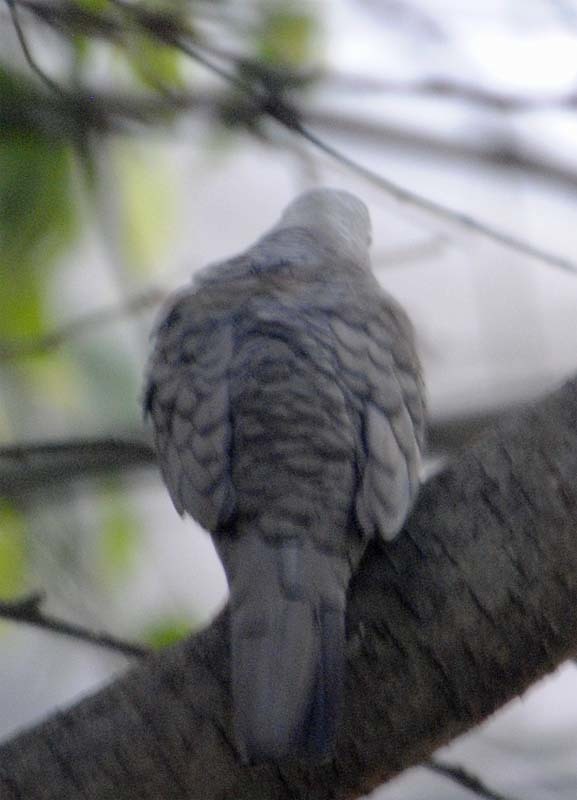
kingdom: Animalia
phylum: Chordata
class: Aves
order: Columbiformes
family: Columbidae
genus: Columbina
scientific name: Columbina inca
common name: Inca dove
